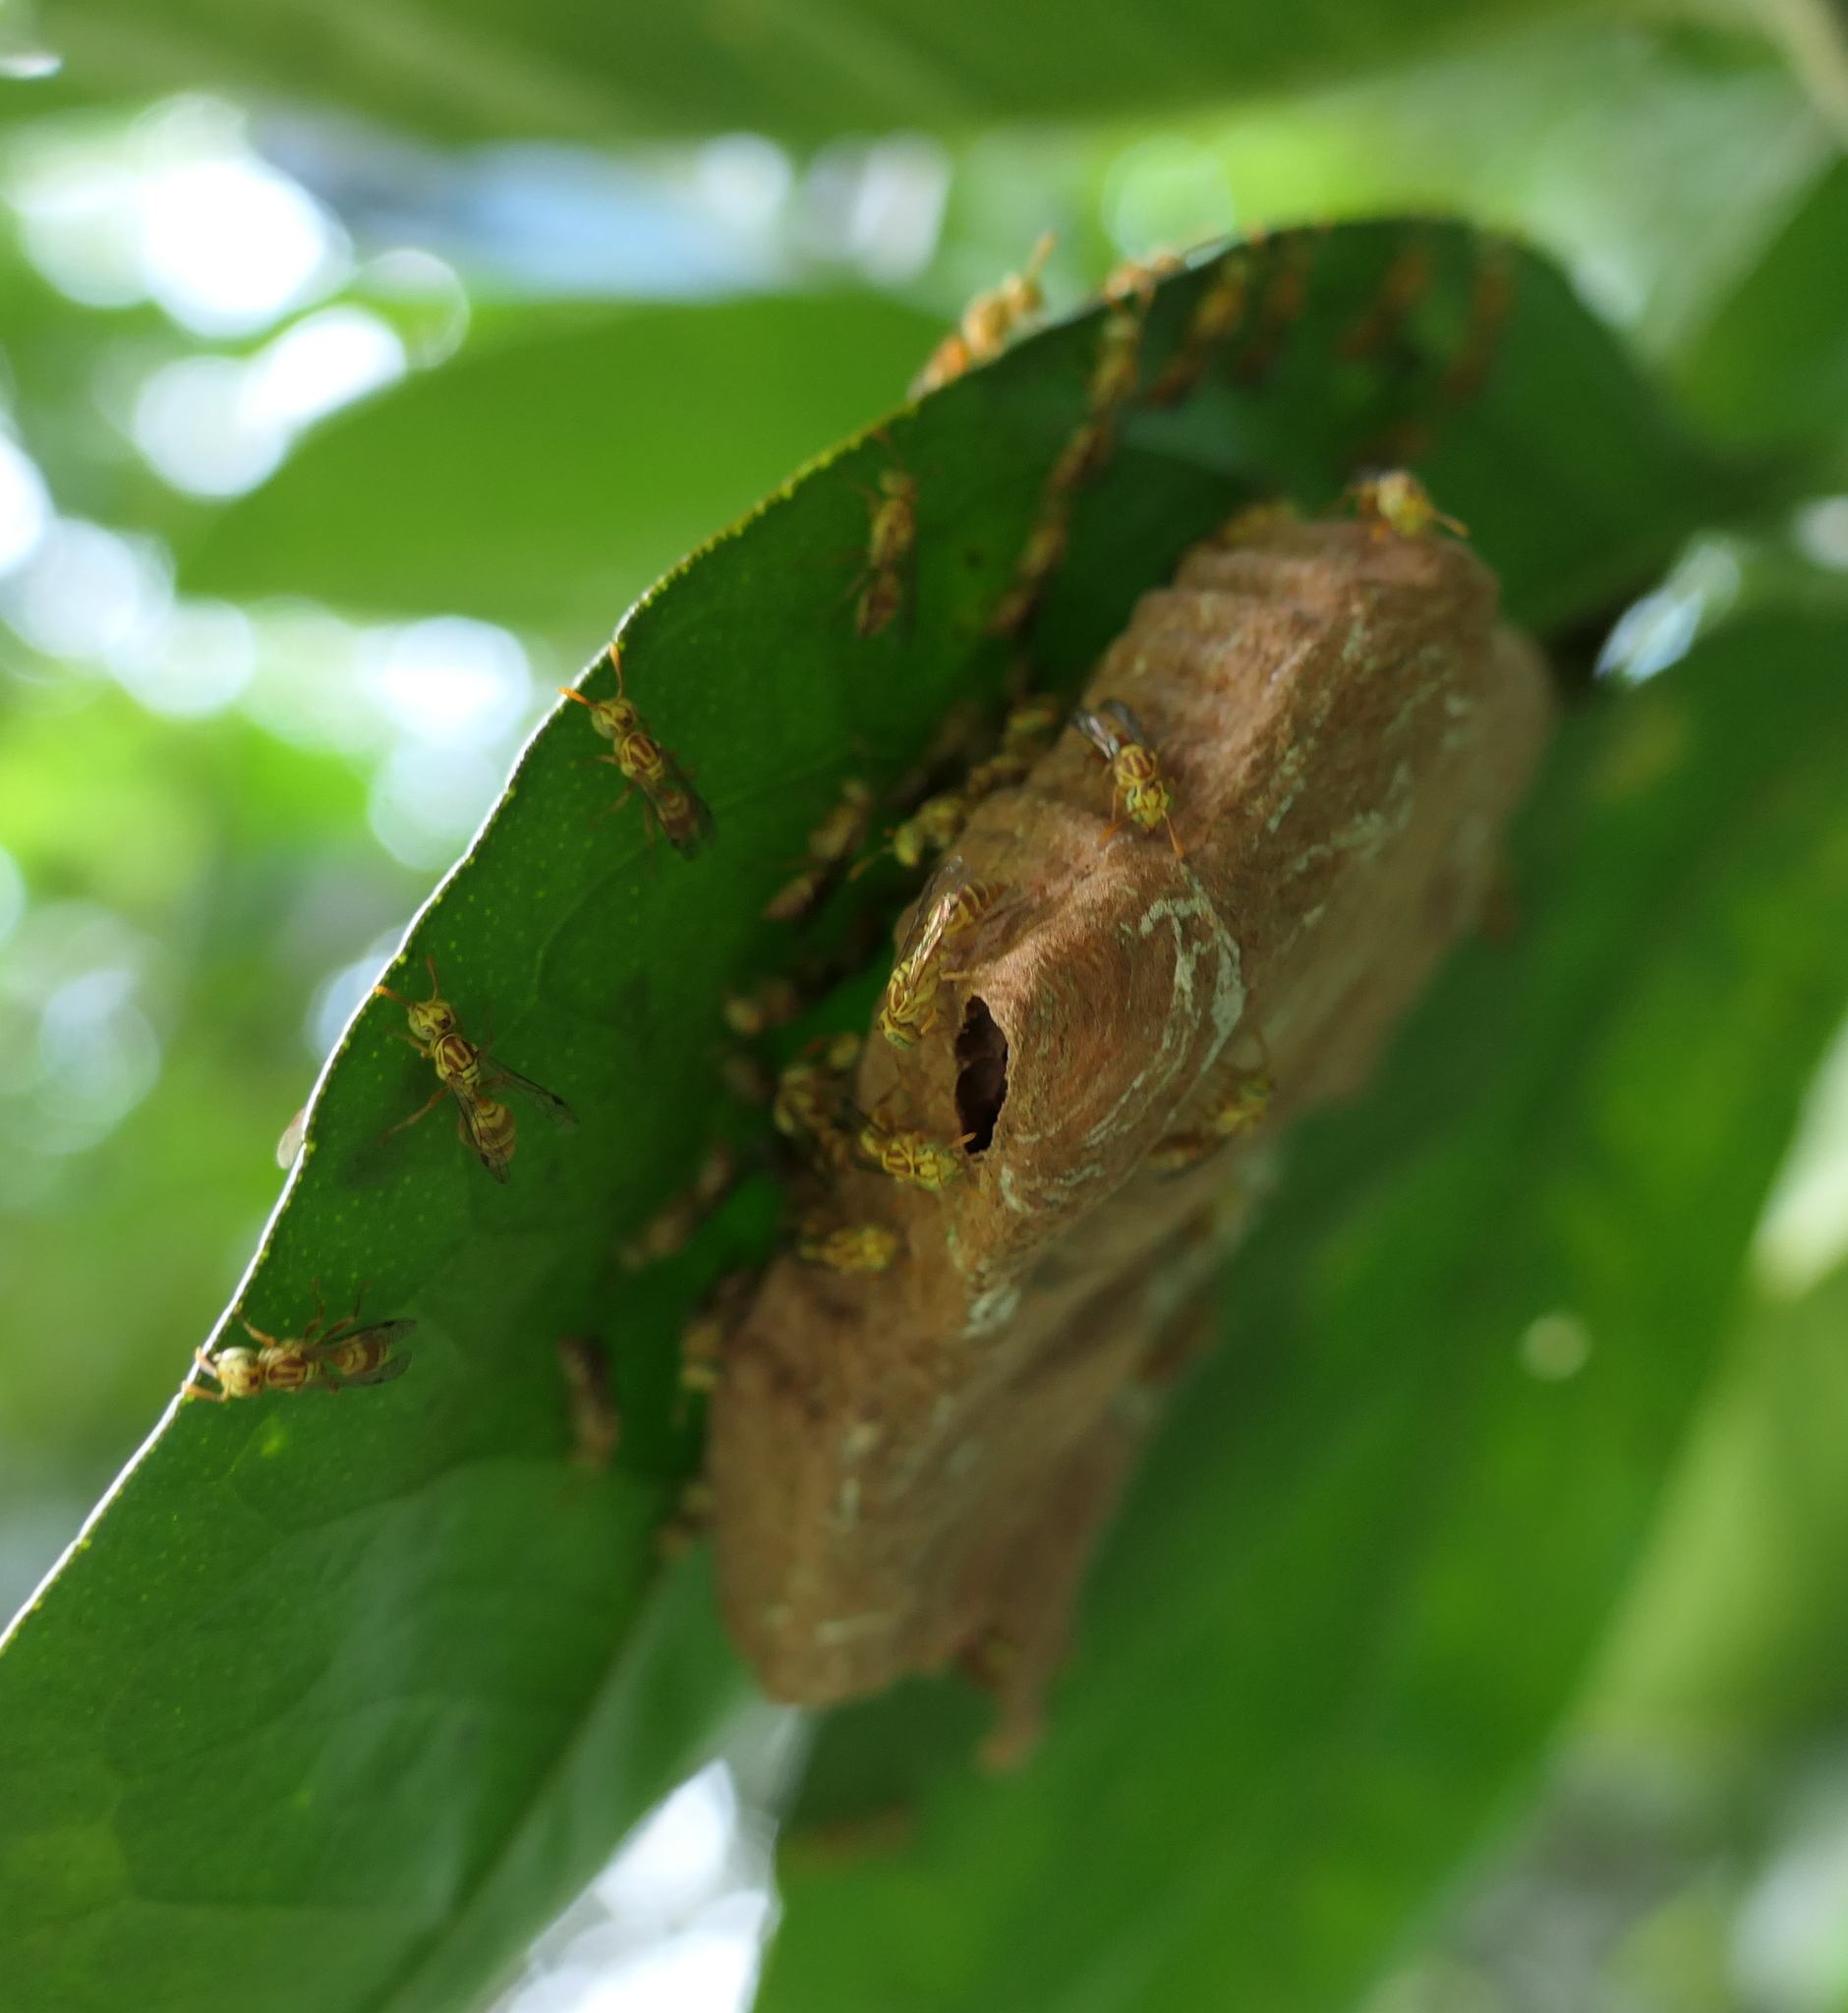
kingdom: Animalia
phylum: Arthropoda
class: Insecta
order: Hymenoptera
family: Vespidae
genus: Protopolybia
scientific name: Protopolybia potiguara
